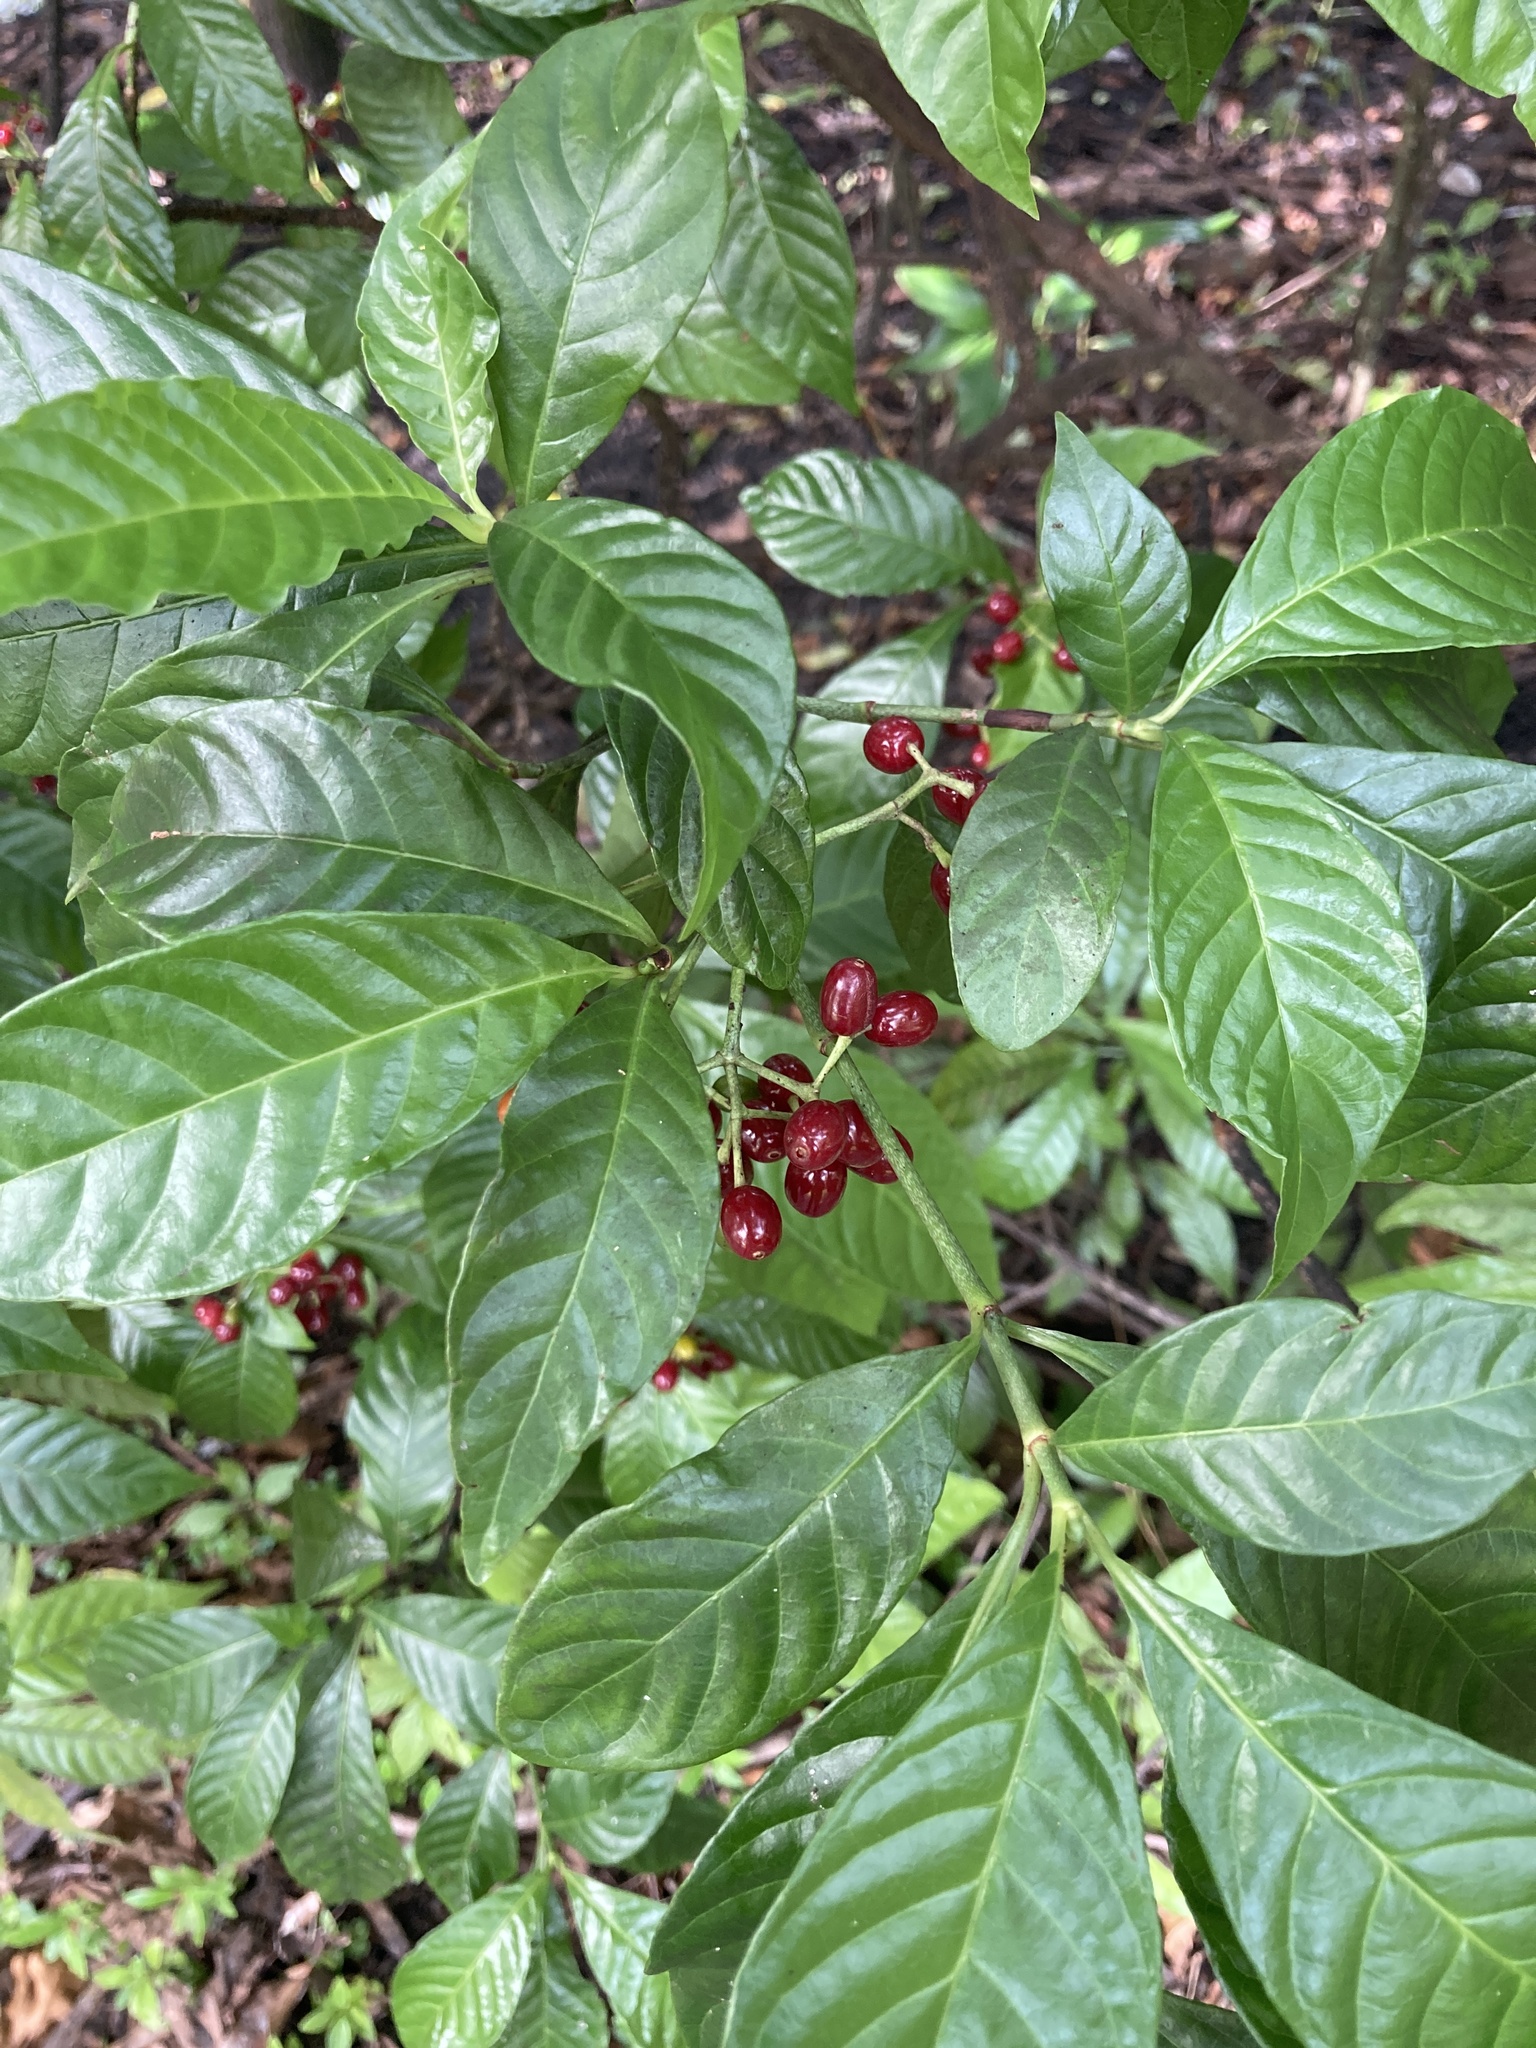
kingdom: Plantae
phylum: Tracheophyta
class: Magnoliopsida
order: Gentianales
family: Rubiaceae
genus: Psychotria
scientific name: Psychotria nervosa
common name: Bastard cankerberry
